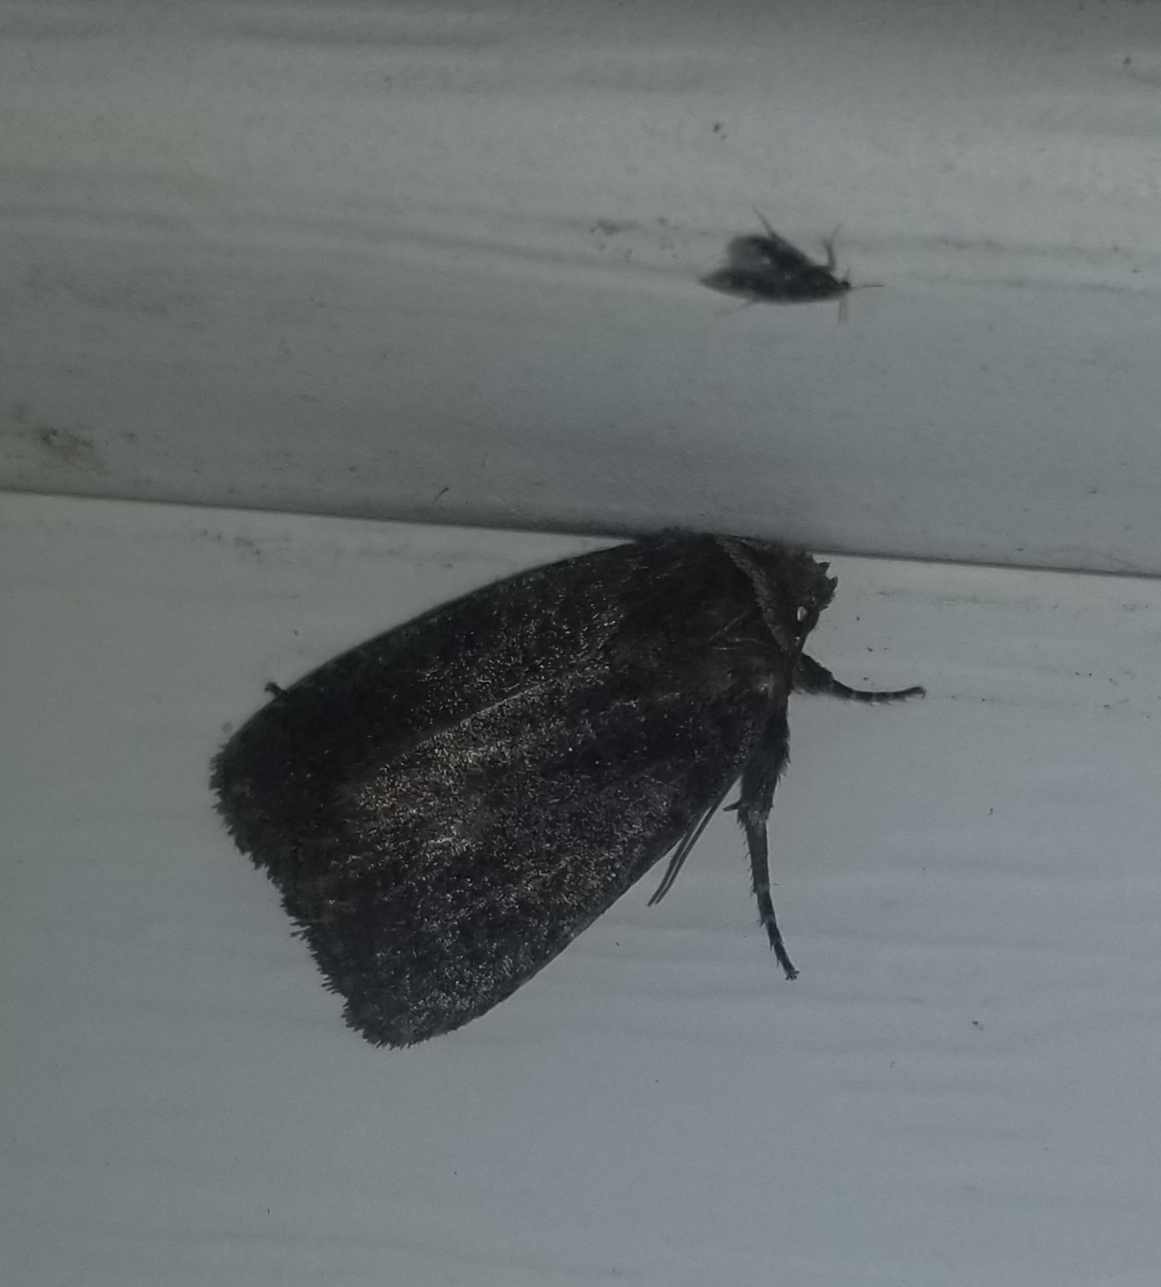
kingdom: Animalia
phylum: Arthropoda
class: Insecta
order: Lepidoptera
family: Noctuidae
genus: Athetis
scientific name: Athetis tarda
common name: Slowpoke moth
